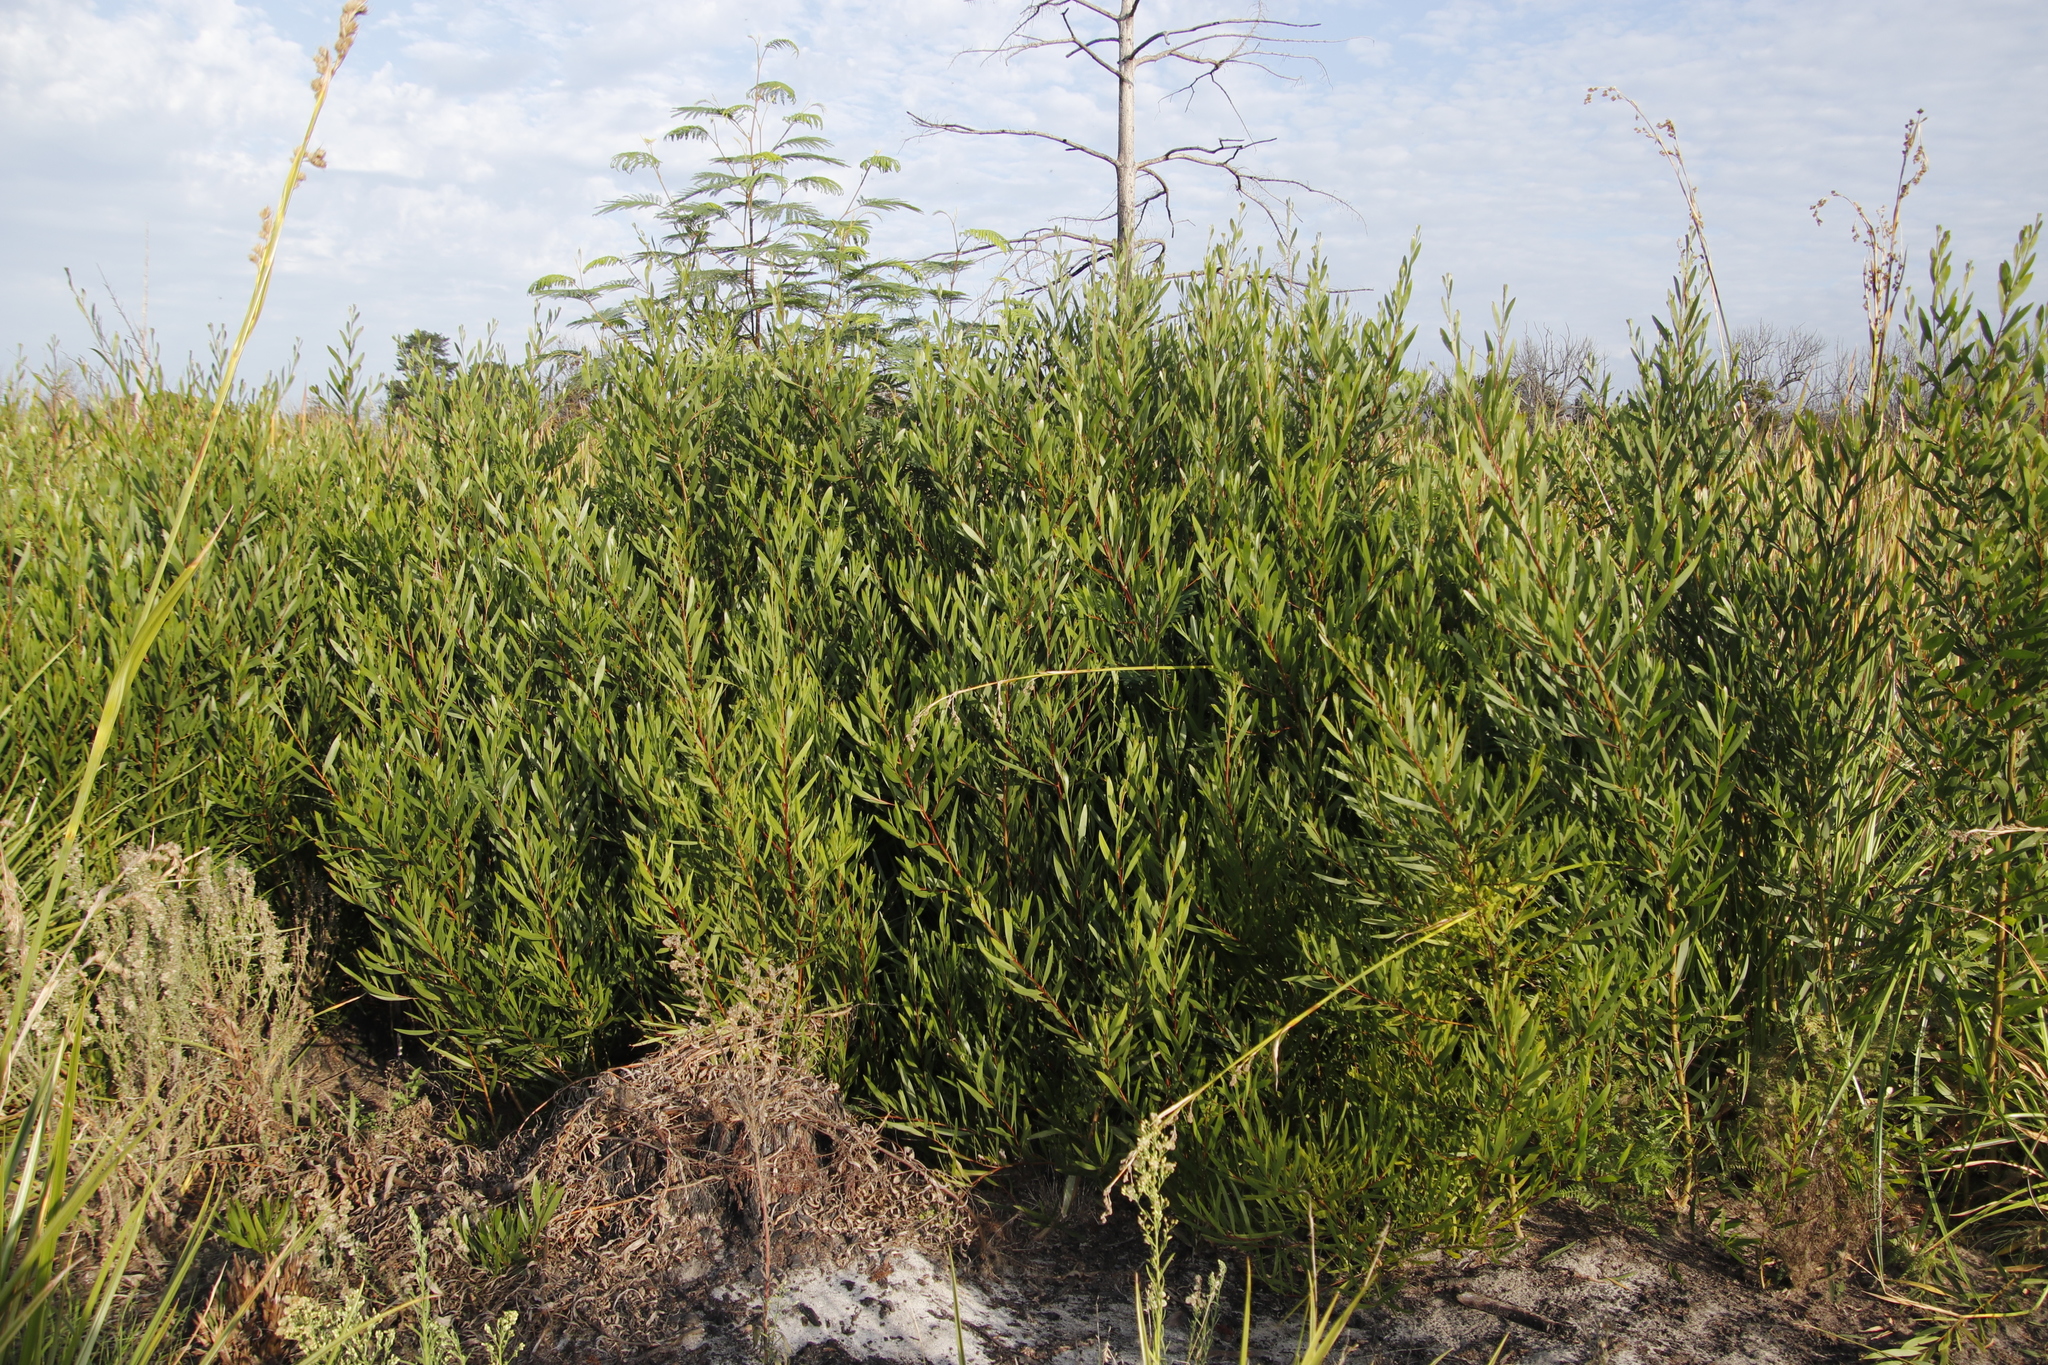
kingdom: Plantae
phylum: Tracheophyta
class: Magnoliopsida
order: Fabales
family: Fabaceae
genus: Acacia
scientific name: Acacia longifolia
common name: Sydney golden wattle
